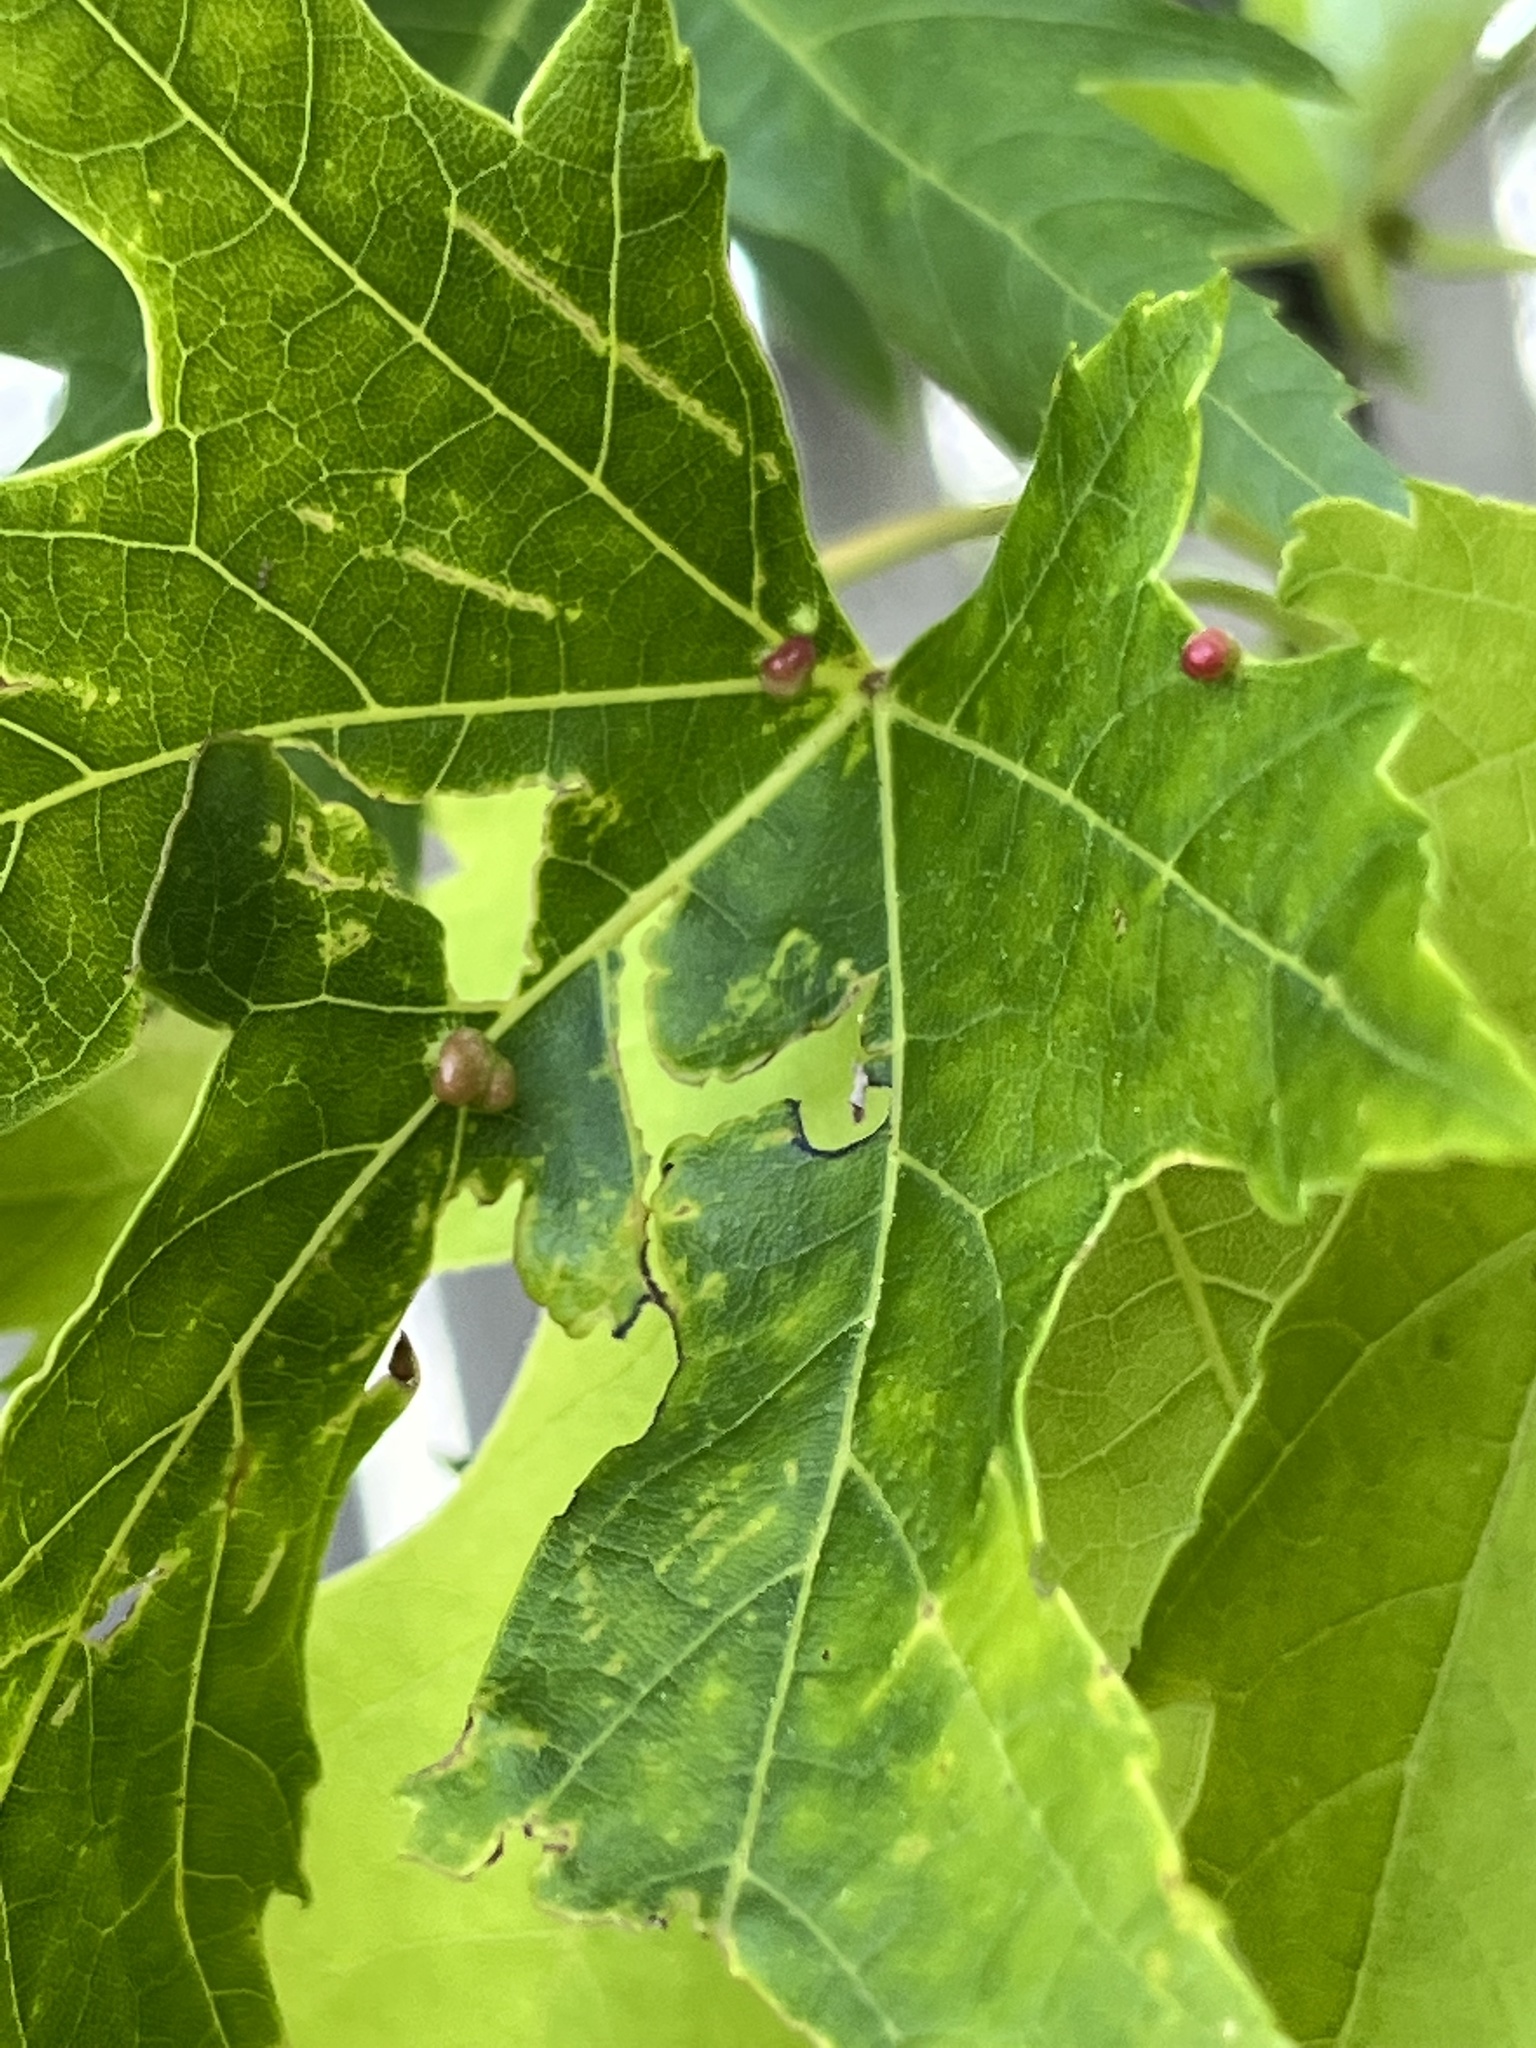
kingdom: Animalia
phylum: Arthropoda
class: Arachnida
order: Trombidiformes
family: Eriophyidae
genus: Vasates
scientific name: Vasates quadripedes
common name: Maple bladder gall mite
